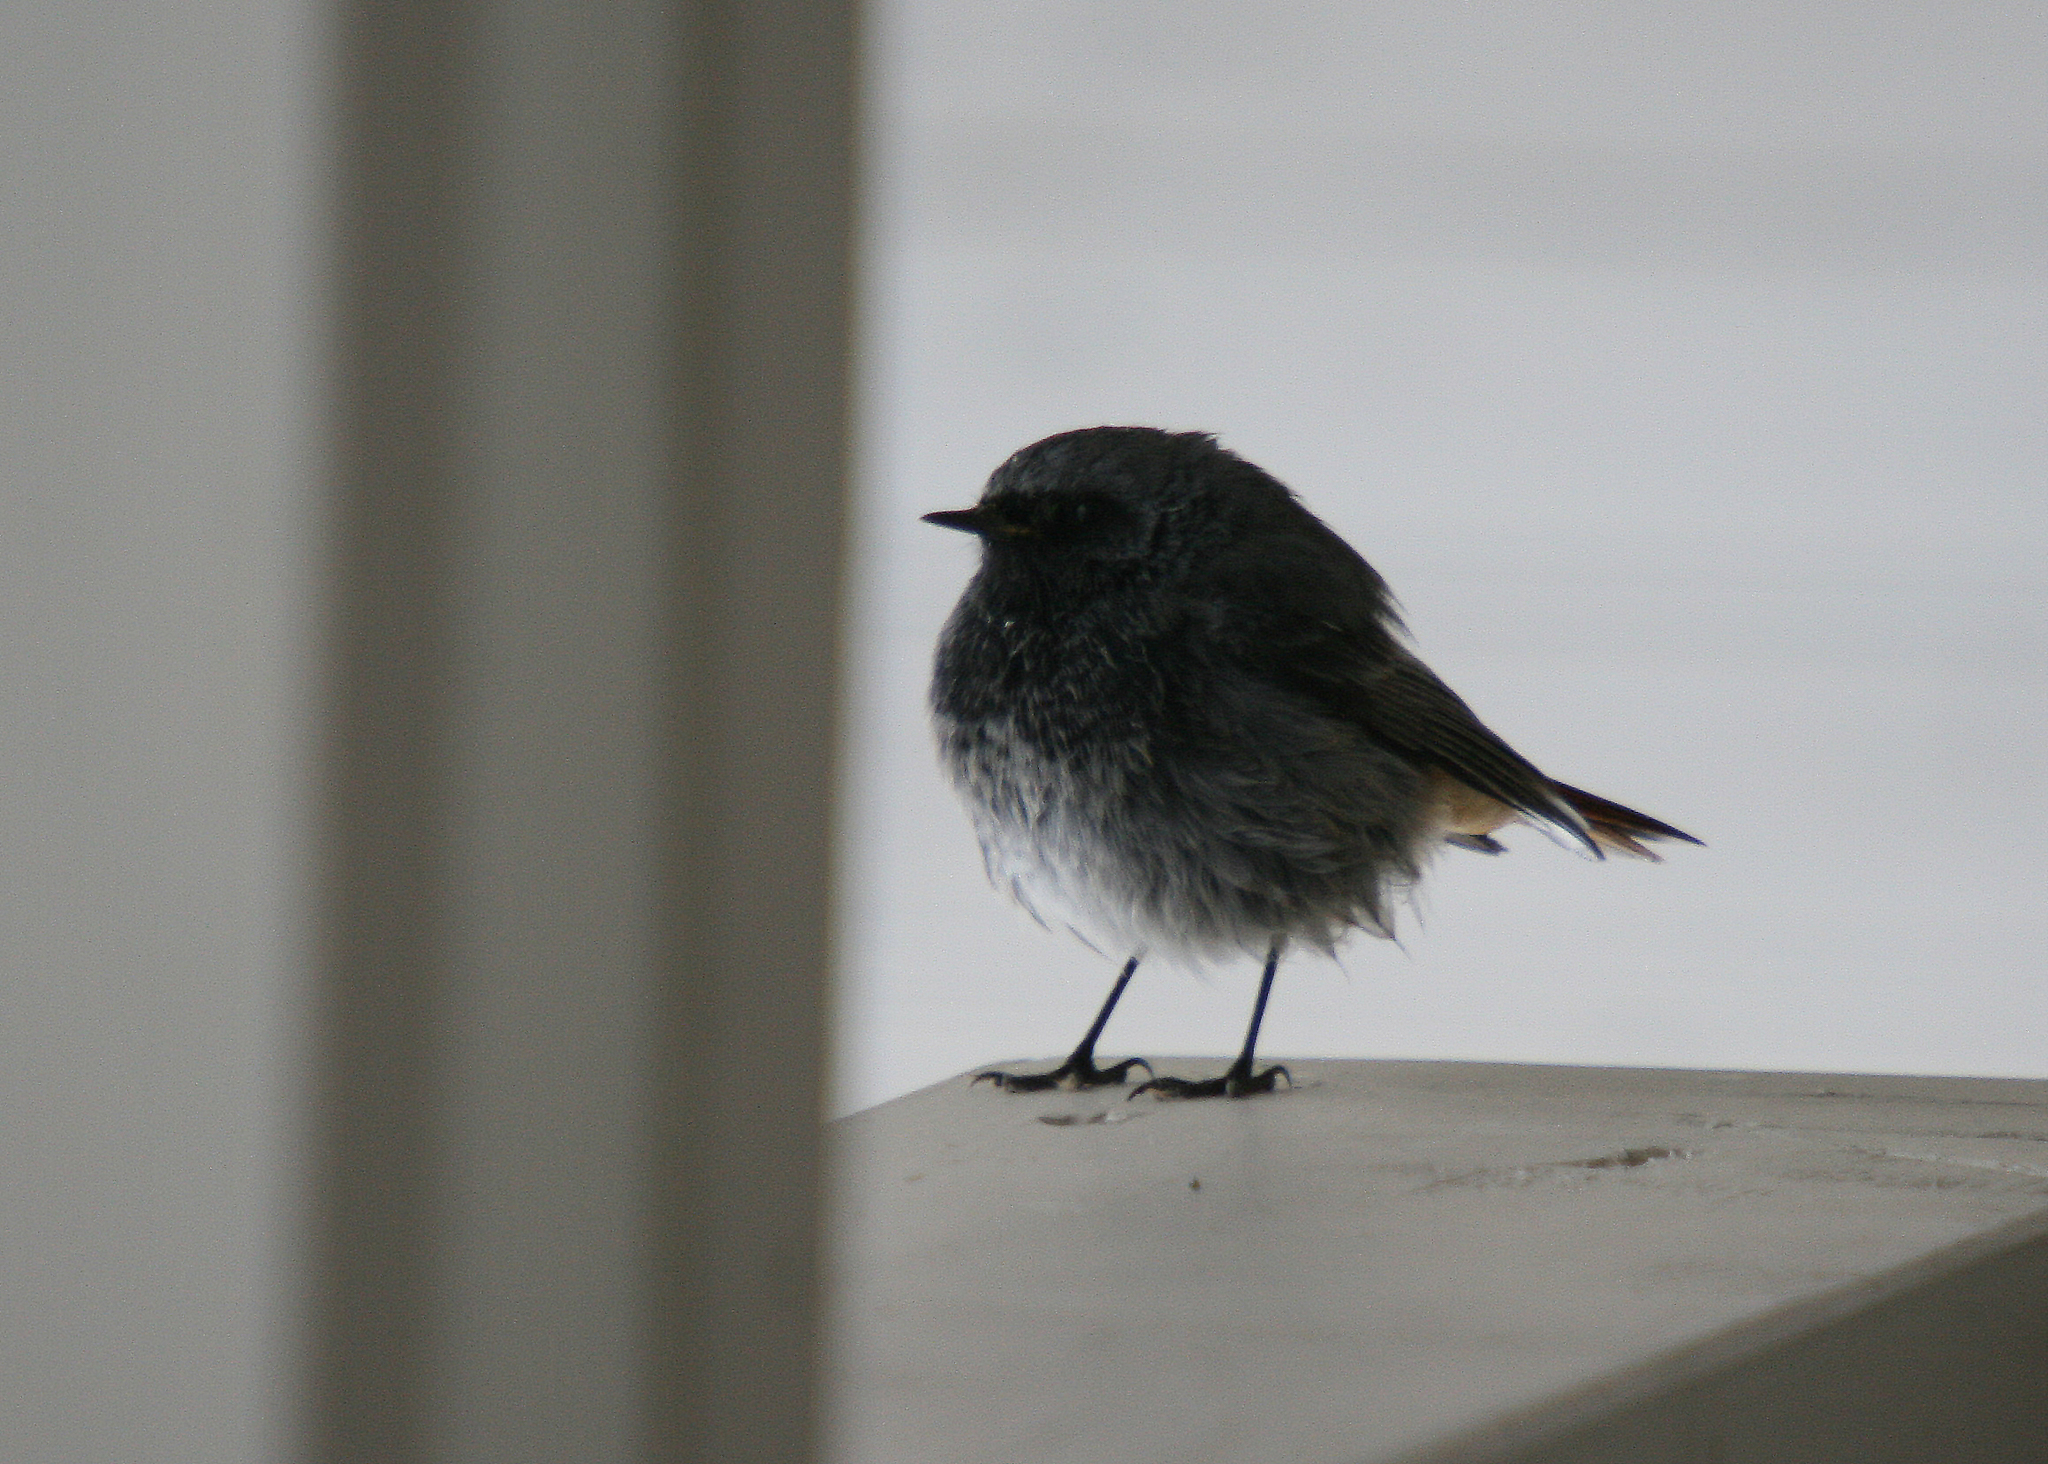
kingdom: Animalia
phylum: Chordata
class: Aves
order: Passeriformes
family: Muscicapidae
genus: Phoenicurus
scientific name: Phoenicurus ochruros
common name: Black redstart
